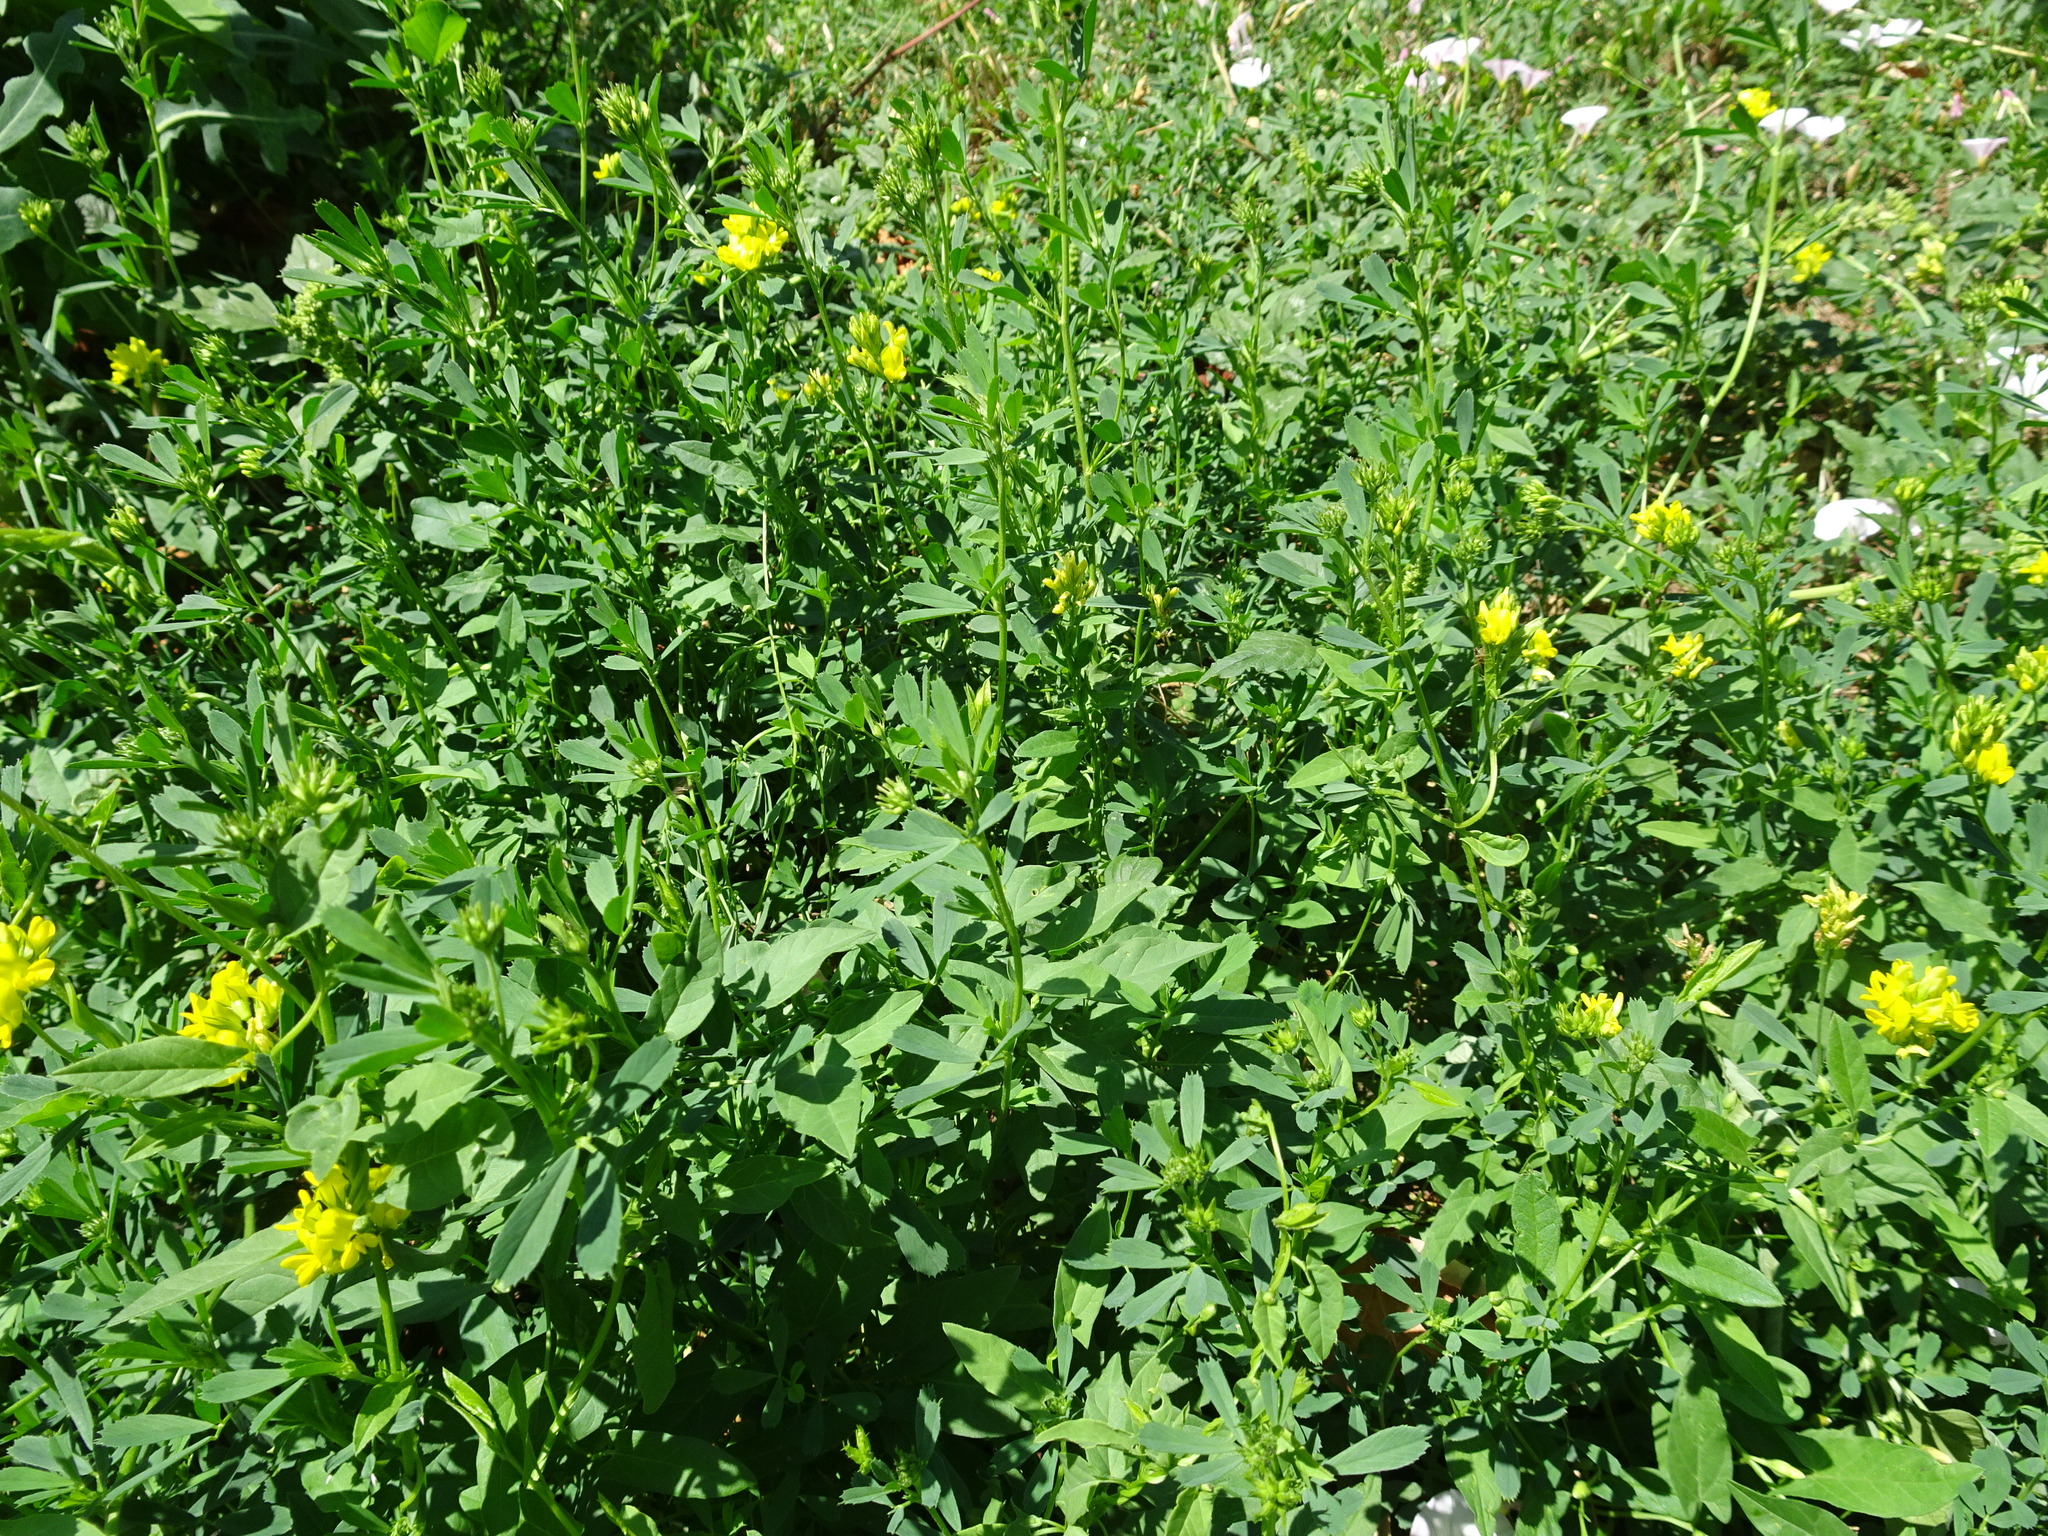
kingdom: Plantae
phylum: Tracheophyta
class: Magnoliopsida
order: Fabales
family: Fabaceae
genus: Medicago
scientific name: Medicago falcata
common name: Sickle medick
